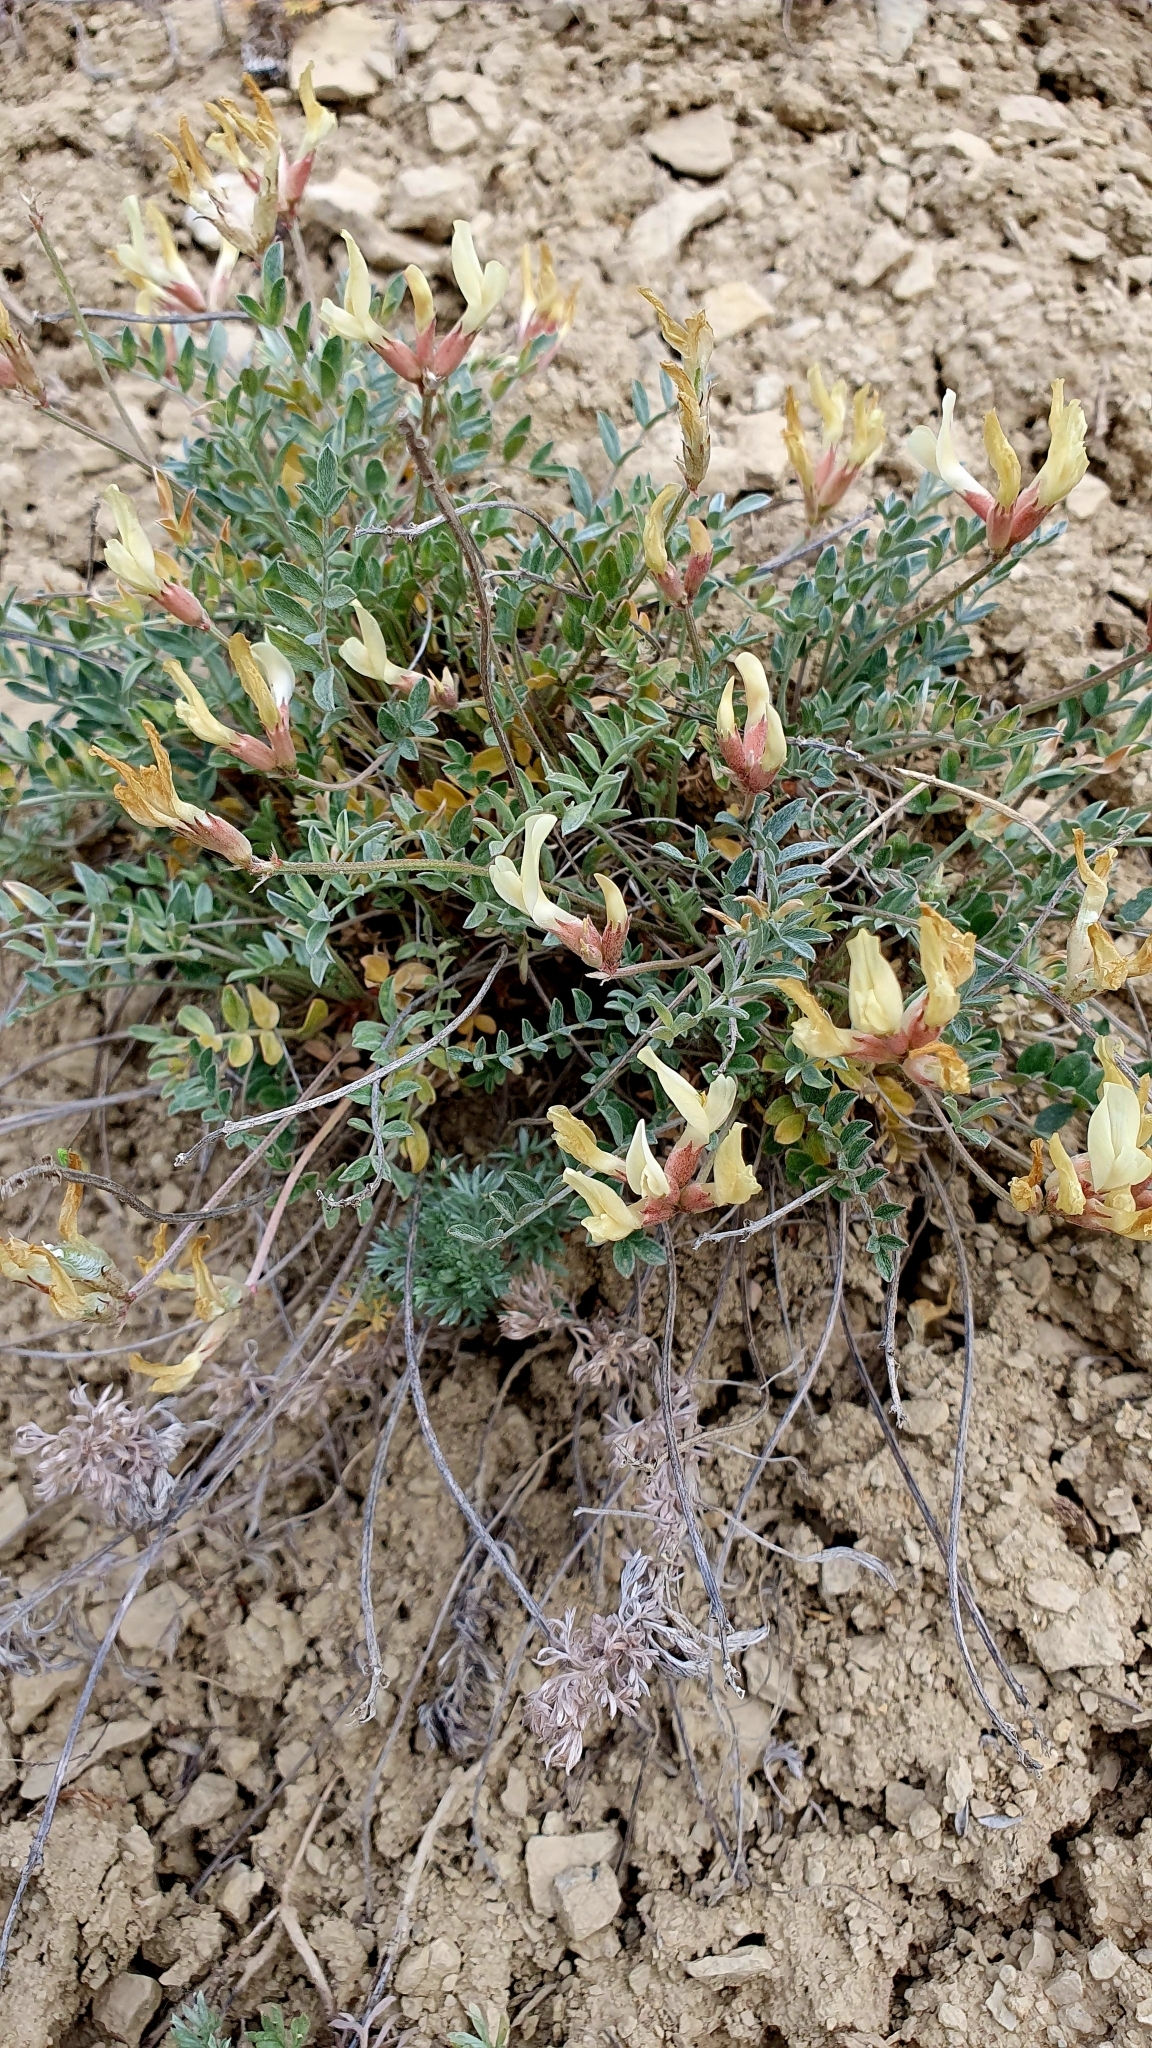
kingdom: Plantae
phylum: Tracheophyta
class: Magnoliopsida
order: Fabales
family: Fabaceae
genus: Astragalus
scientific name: Astragalus helmii
